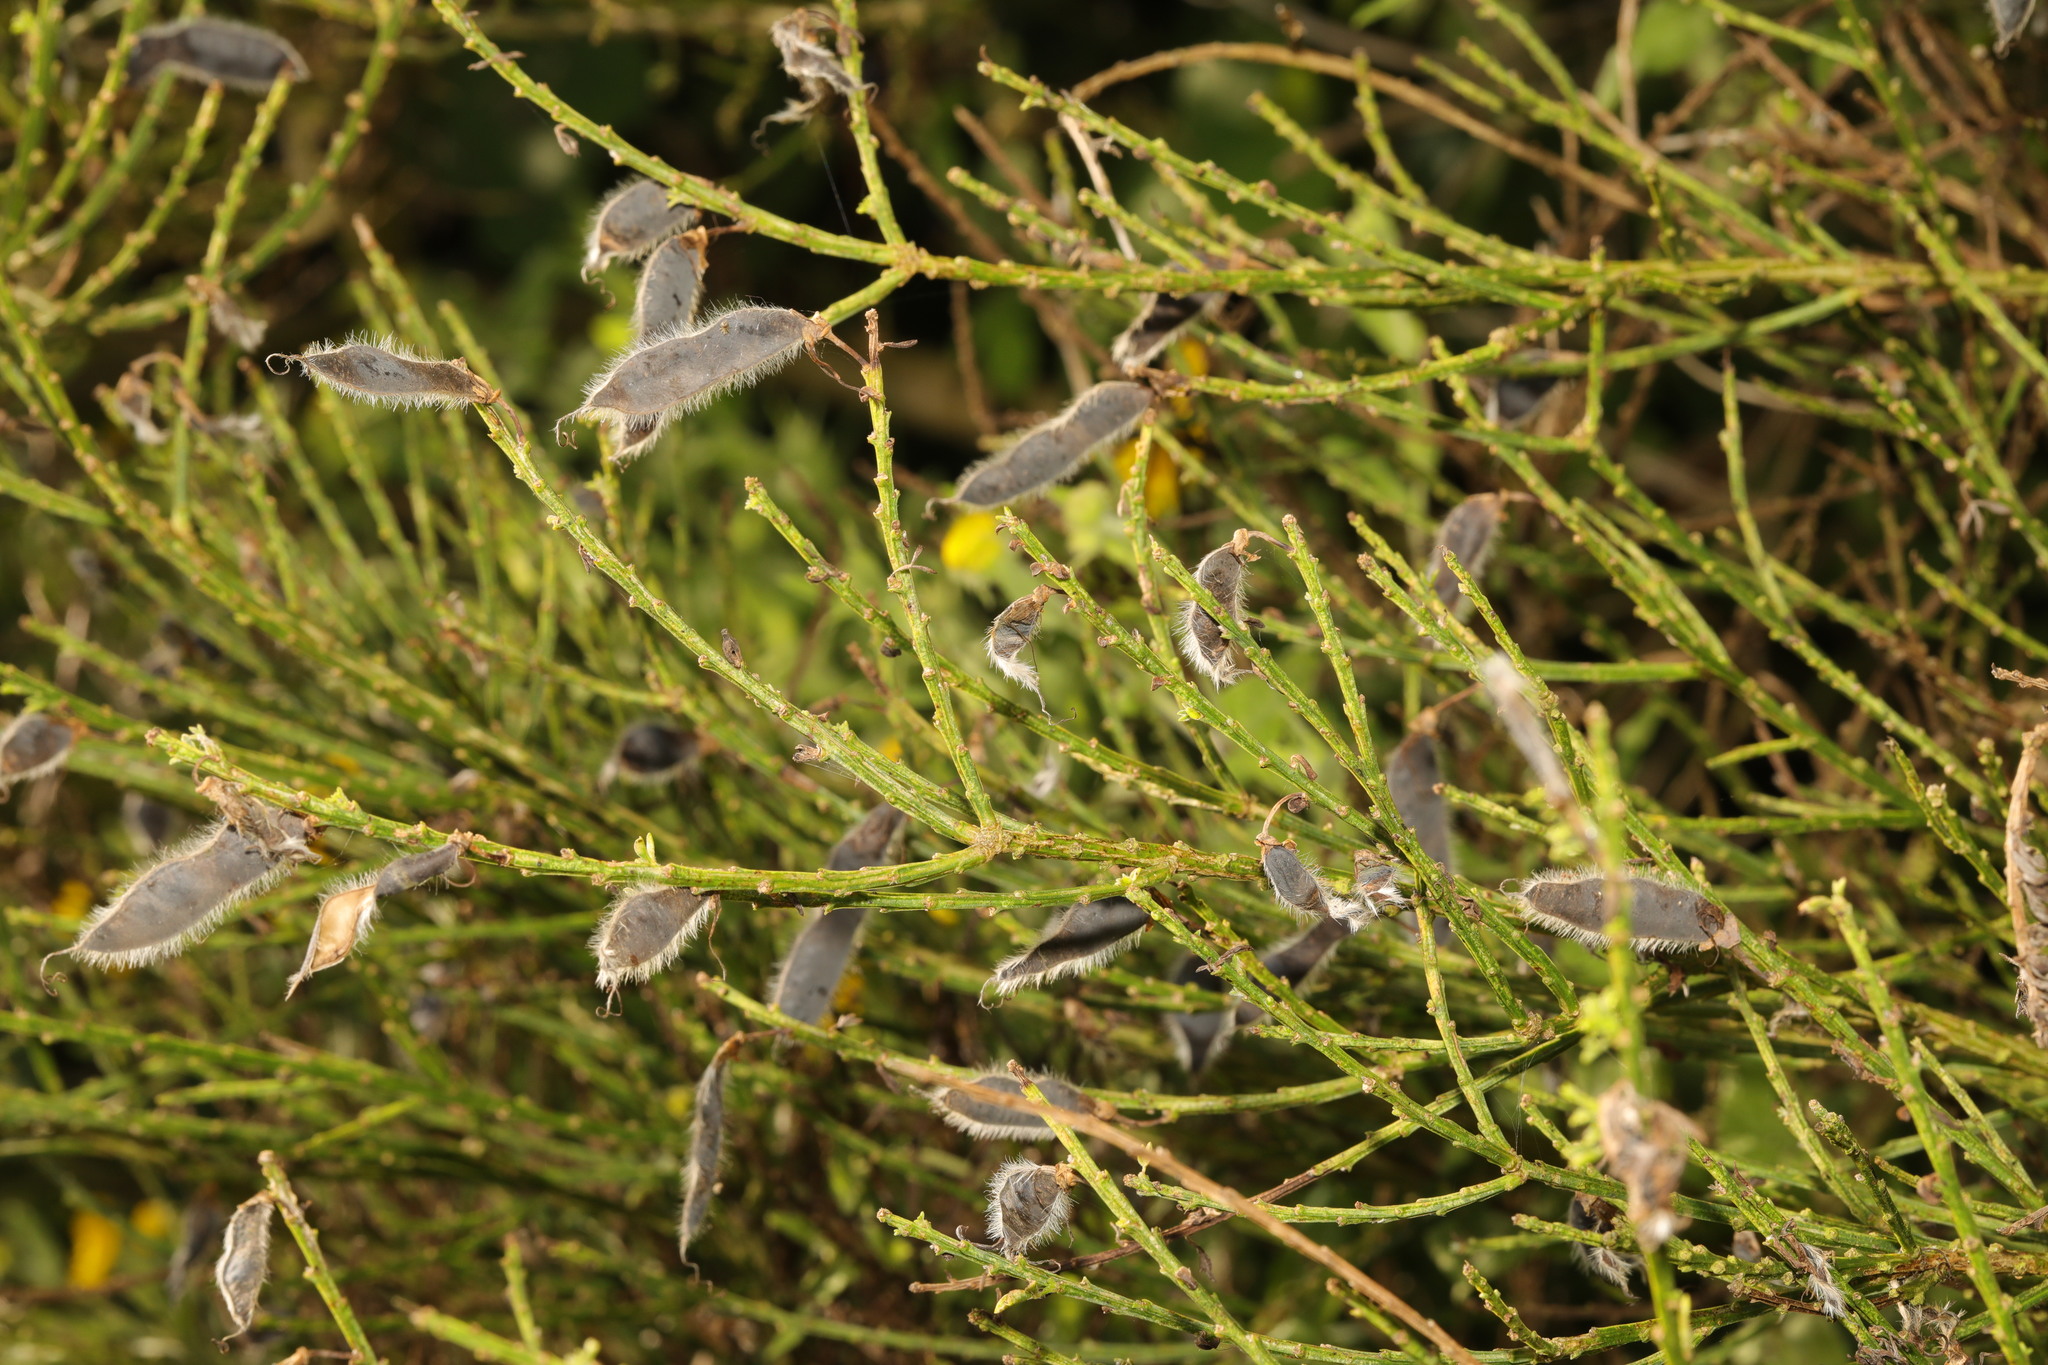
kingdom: Plantae
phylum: Tracheophyta
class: Magnoliopsida
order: Fabales
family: Fabaceae
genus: Cytisus
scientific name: Cytisus scoparius
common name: Scotch broom
